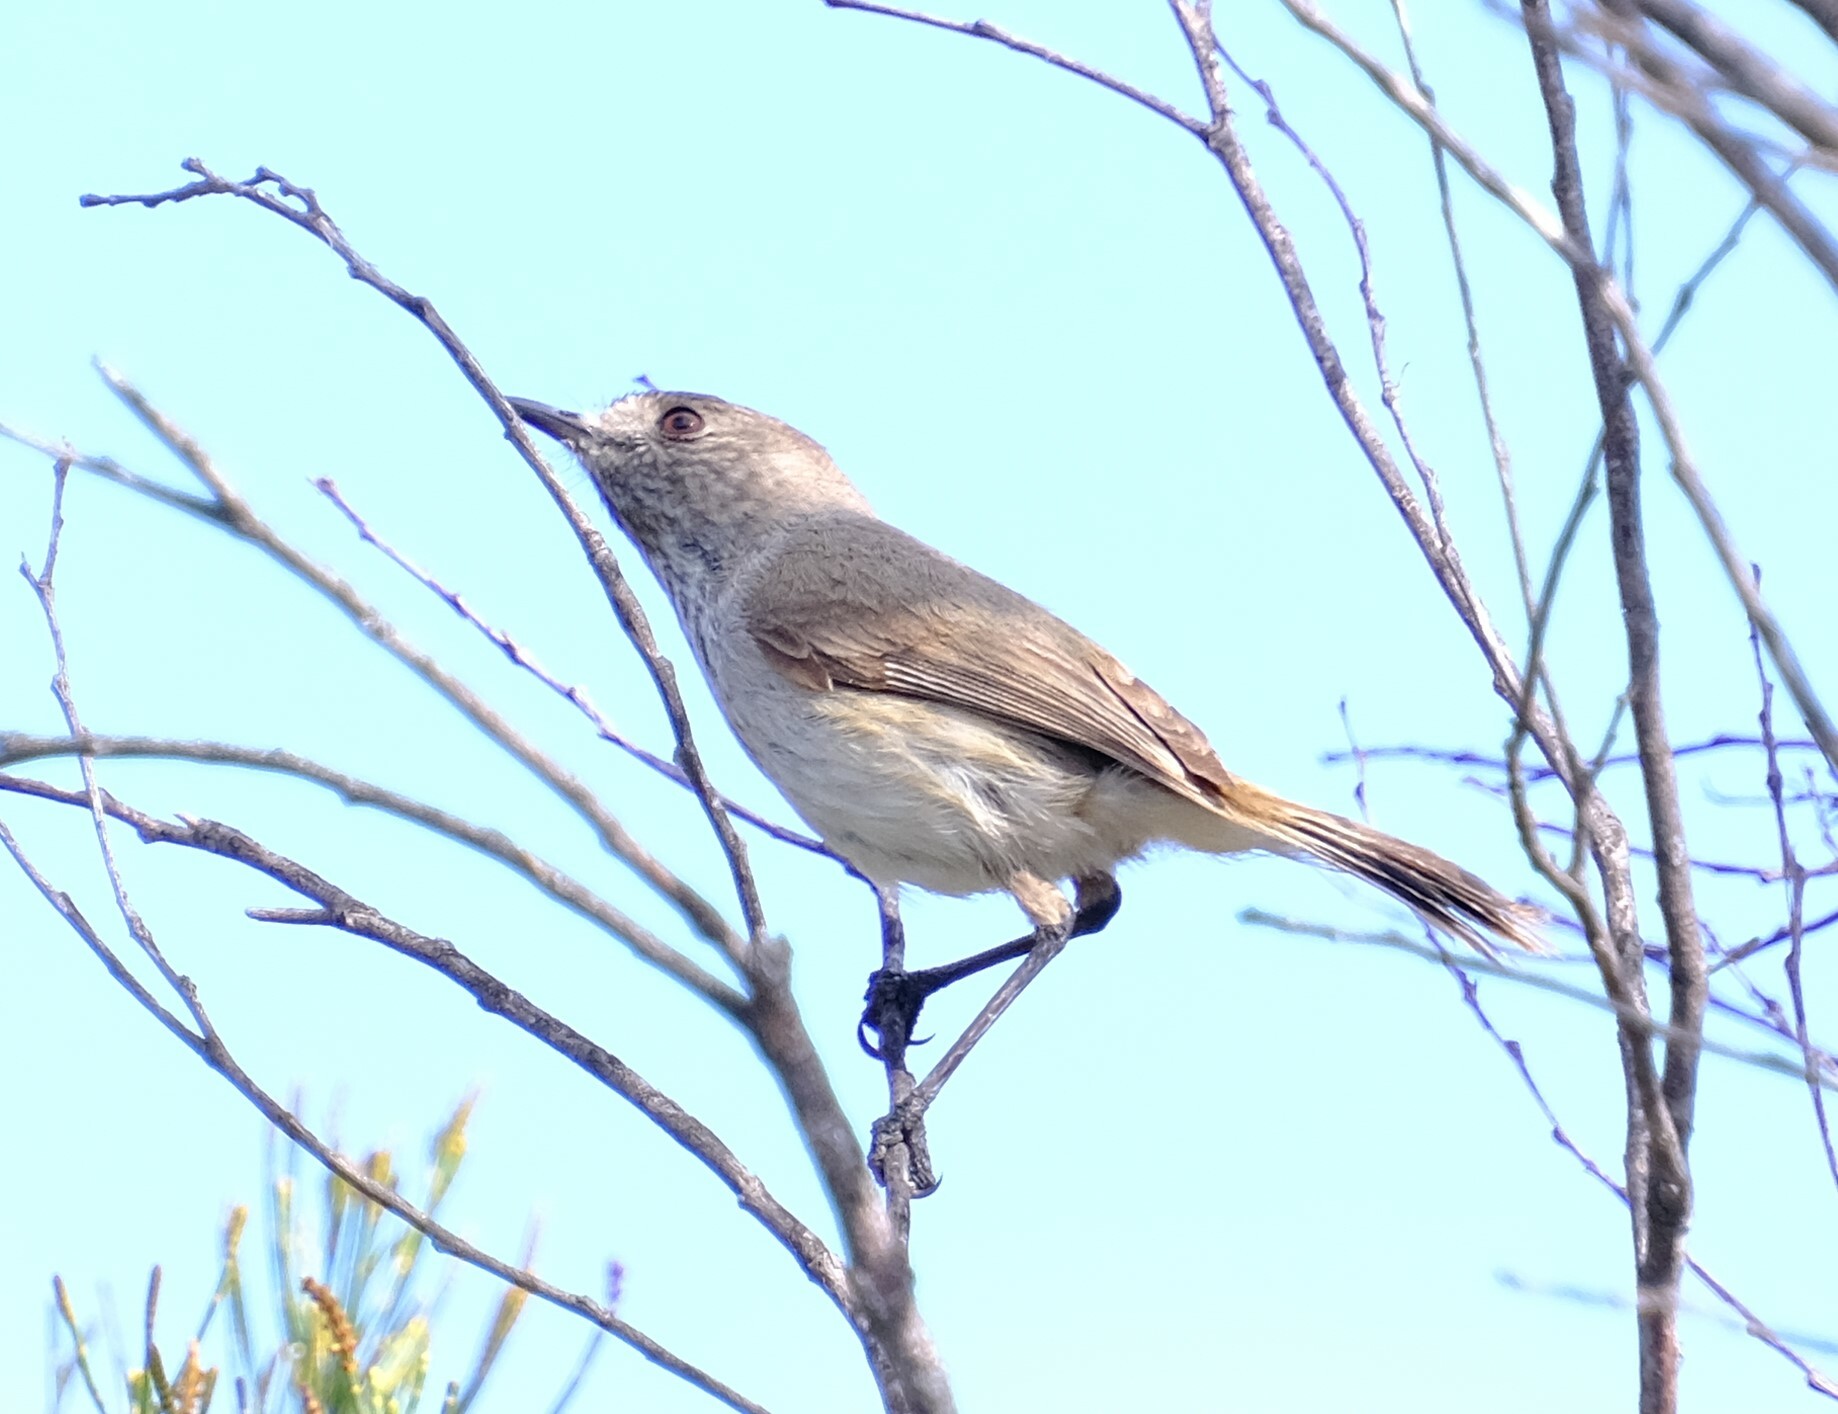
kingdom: Animalia
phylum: Chordata
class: Aves
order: Passeriformes
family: Acanthizidae
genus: Acanthiza
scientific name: Acanthiza apicalis
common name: Inland thornbill
